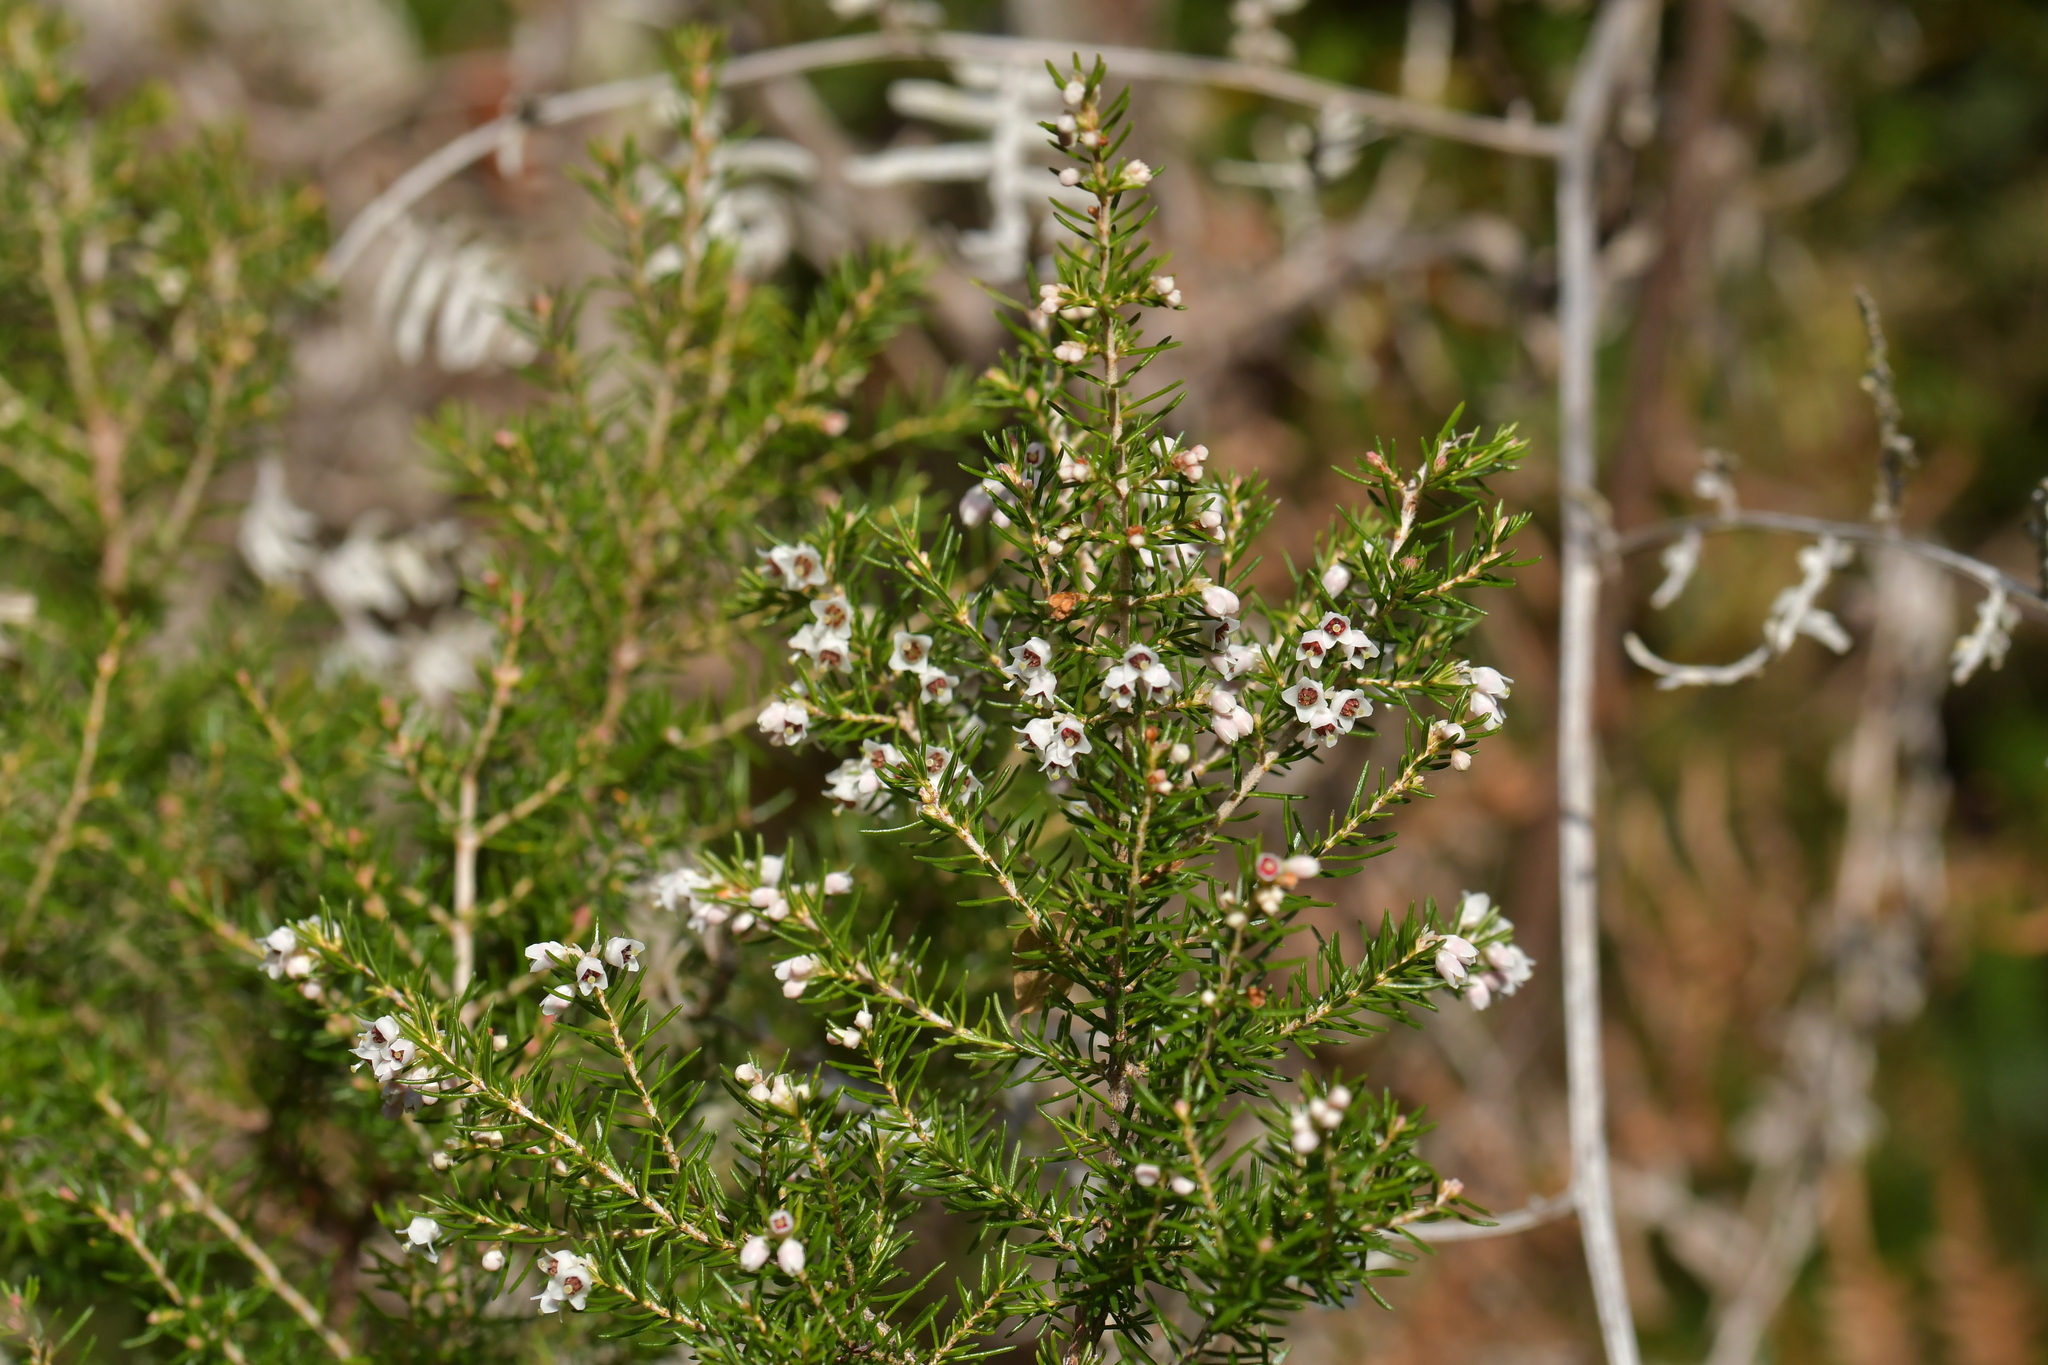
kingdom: Plantae
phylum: Tracheophyta
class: Magnoliopsida
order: Ericales
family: Ericaceae
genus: Erica
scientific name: Erica arborea
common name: Tree heath
